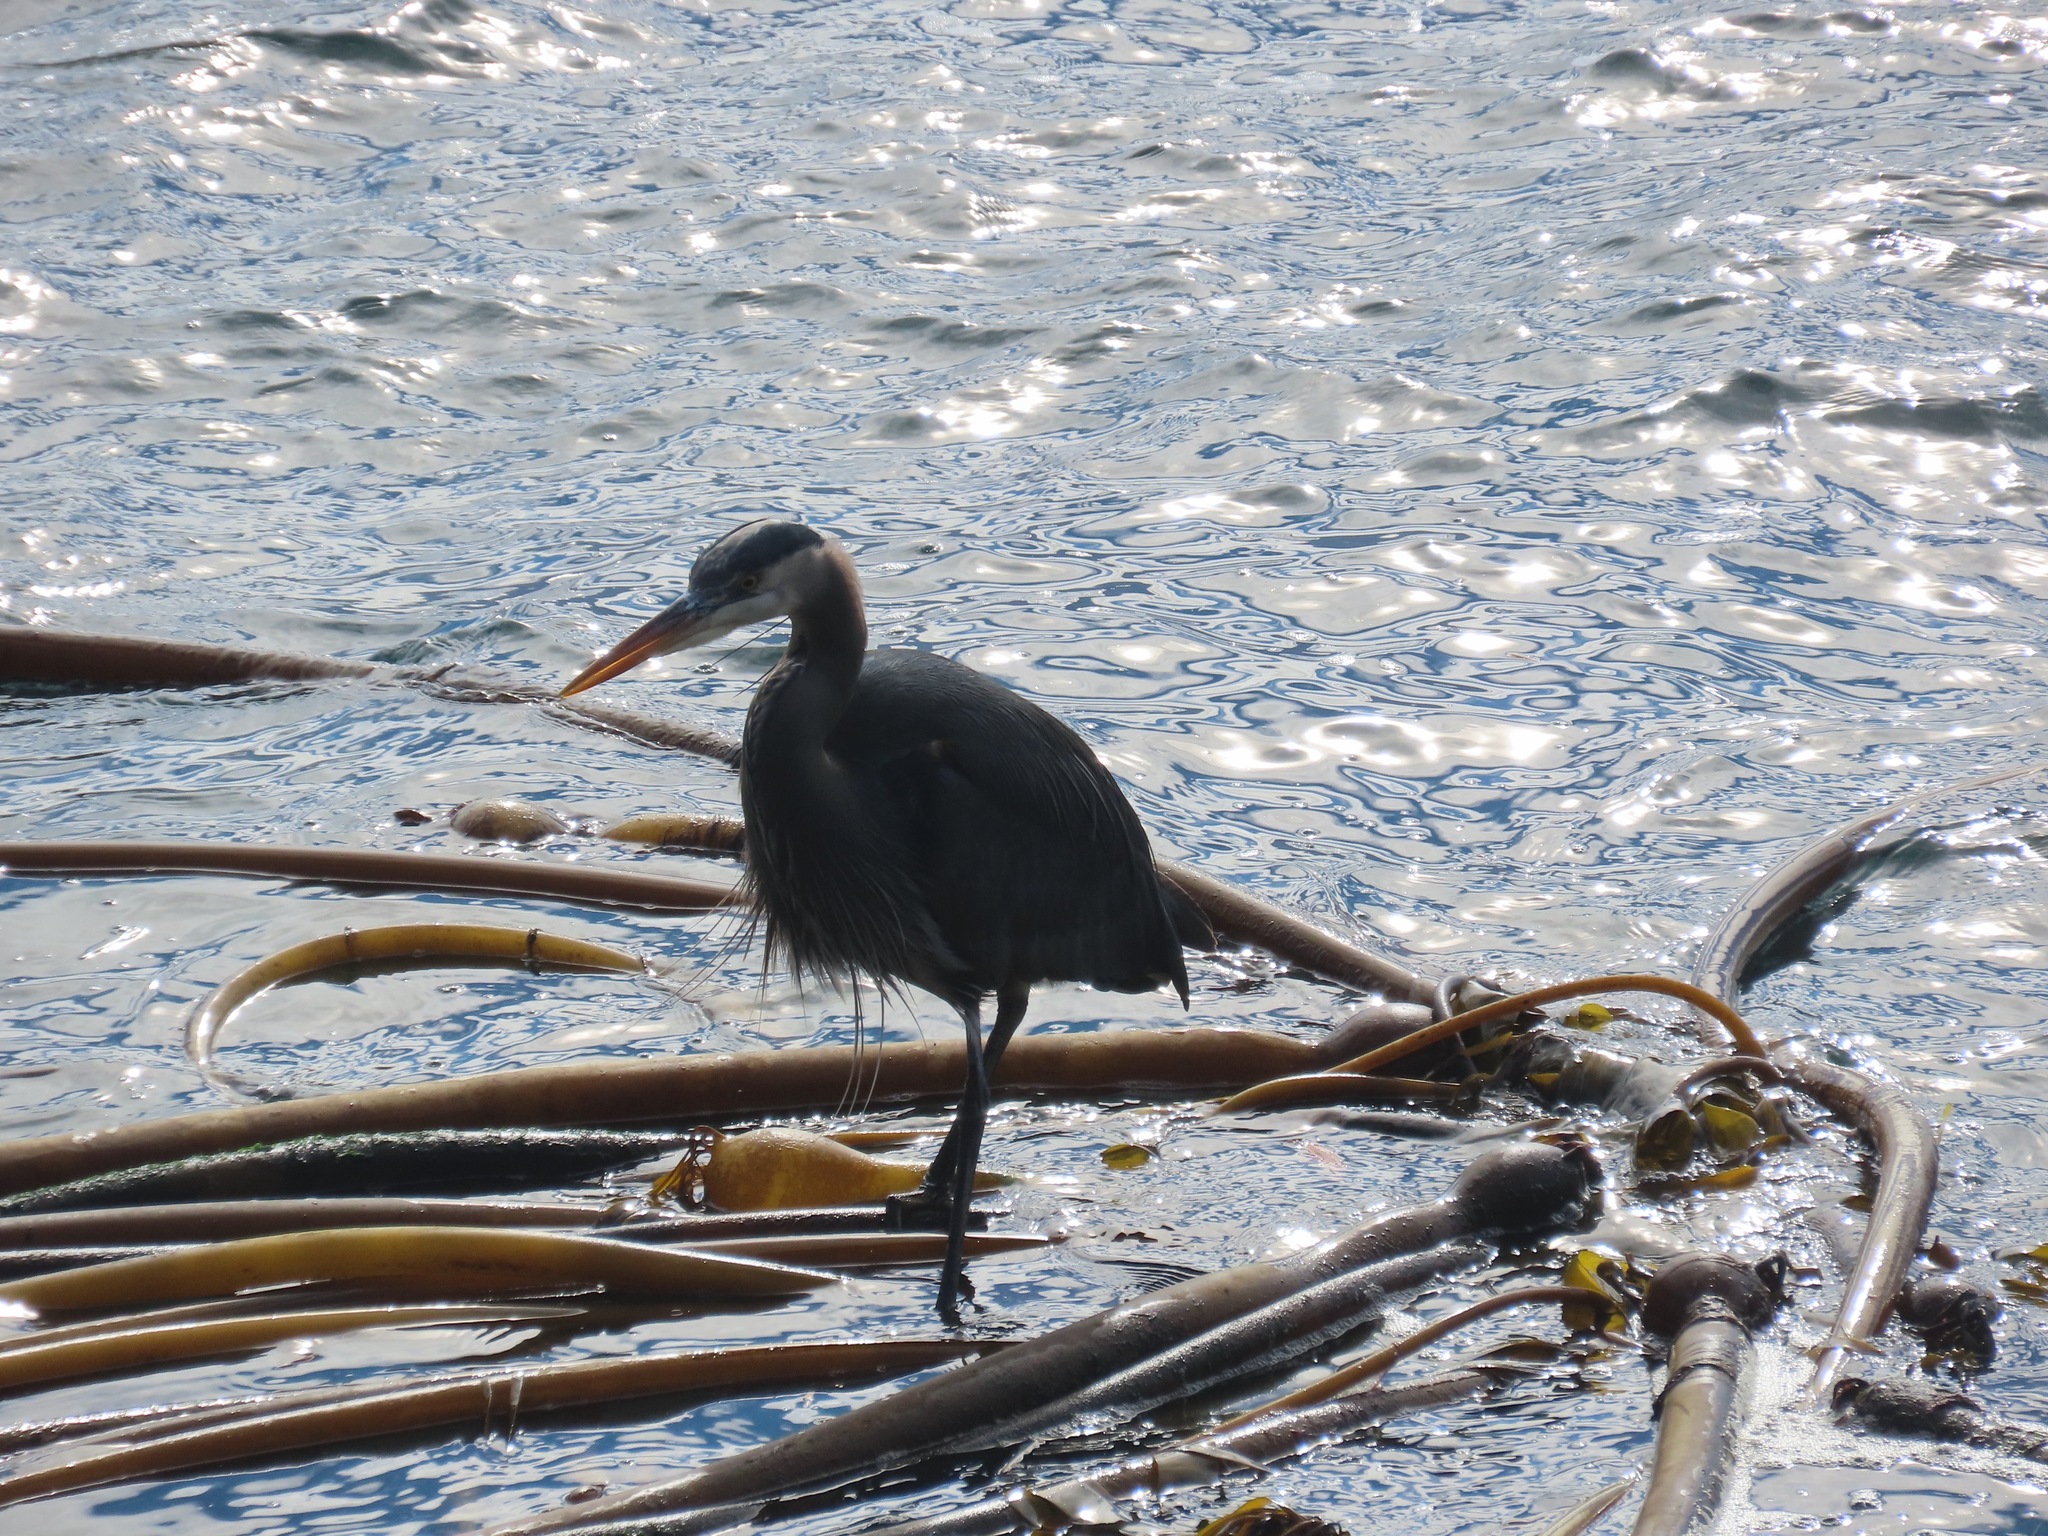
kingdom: Animalia
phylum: Chordata
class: Aves
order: Pelecaniformes
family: Ardeidae
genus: Ardea
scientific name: Ardea herodias
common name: Great blue heron
